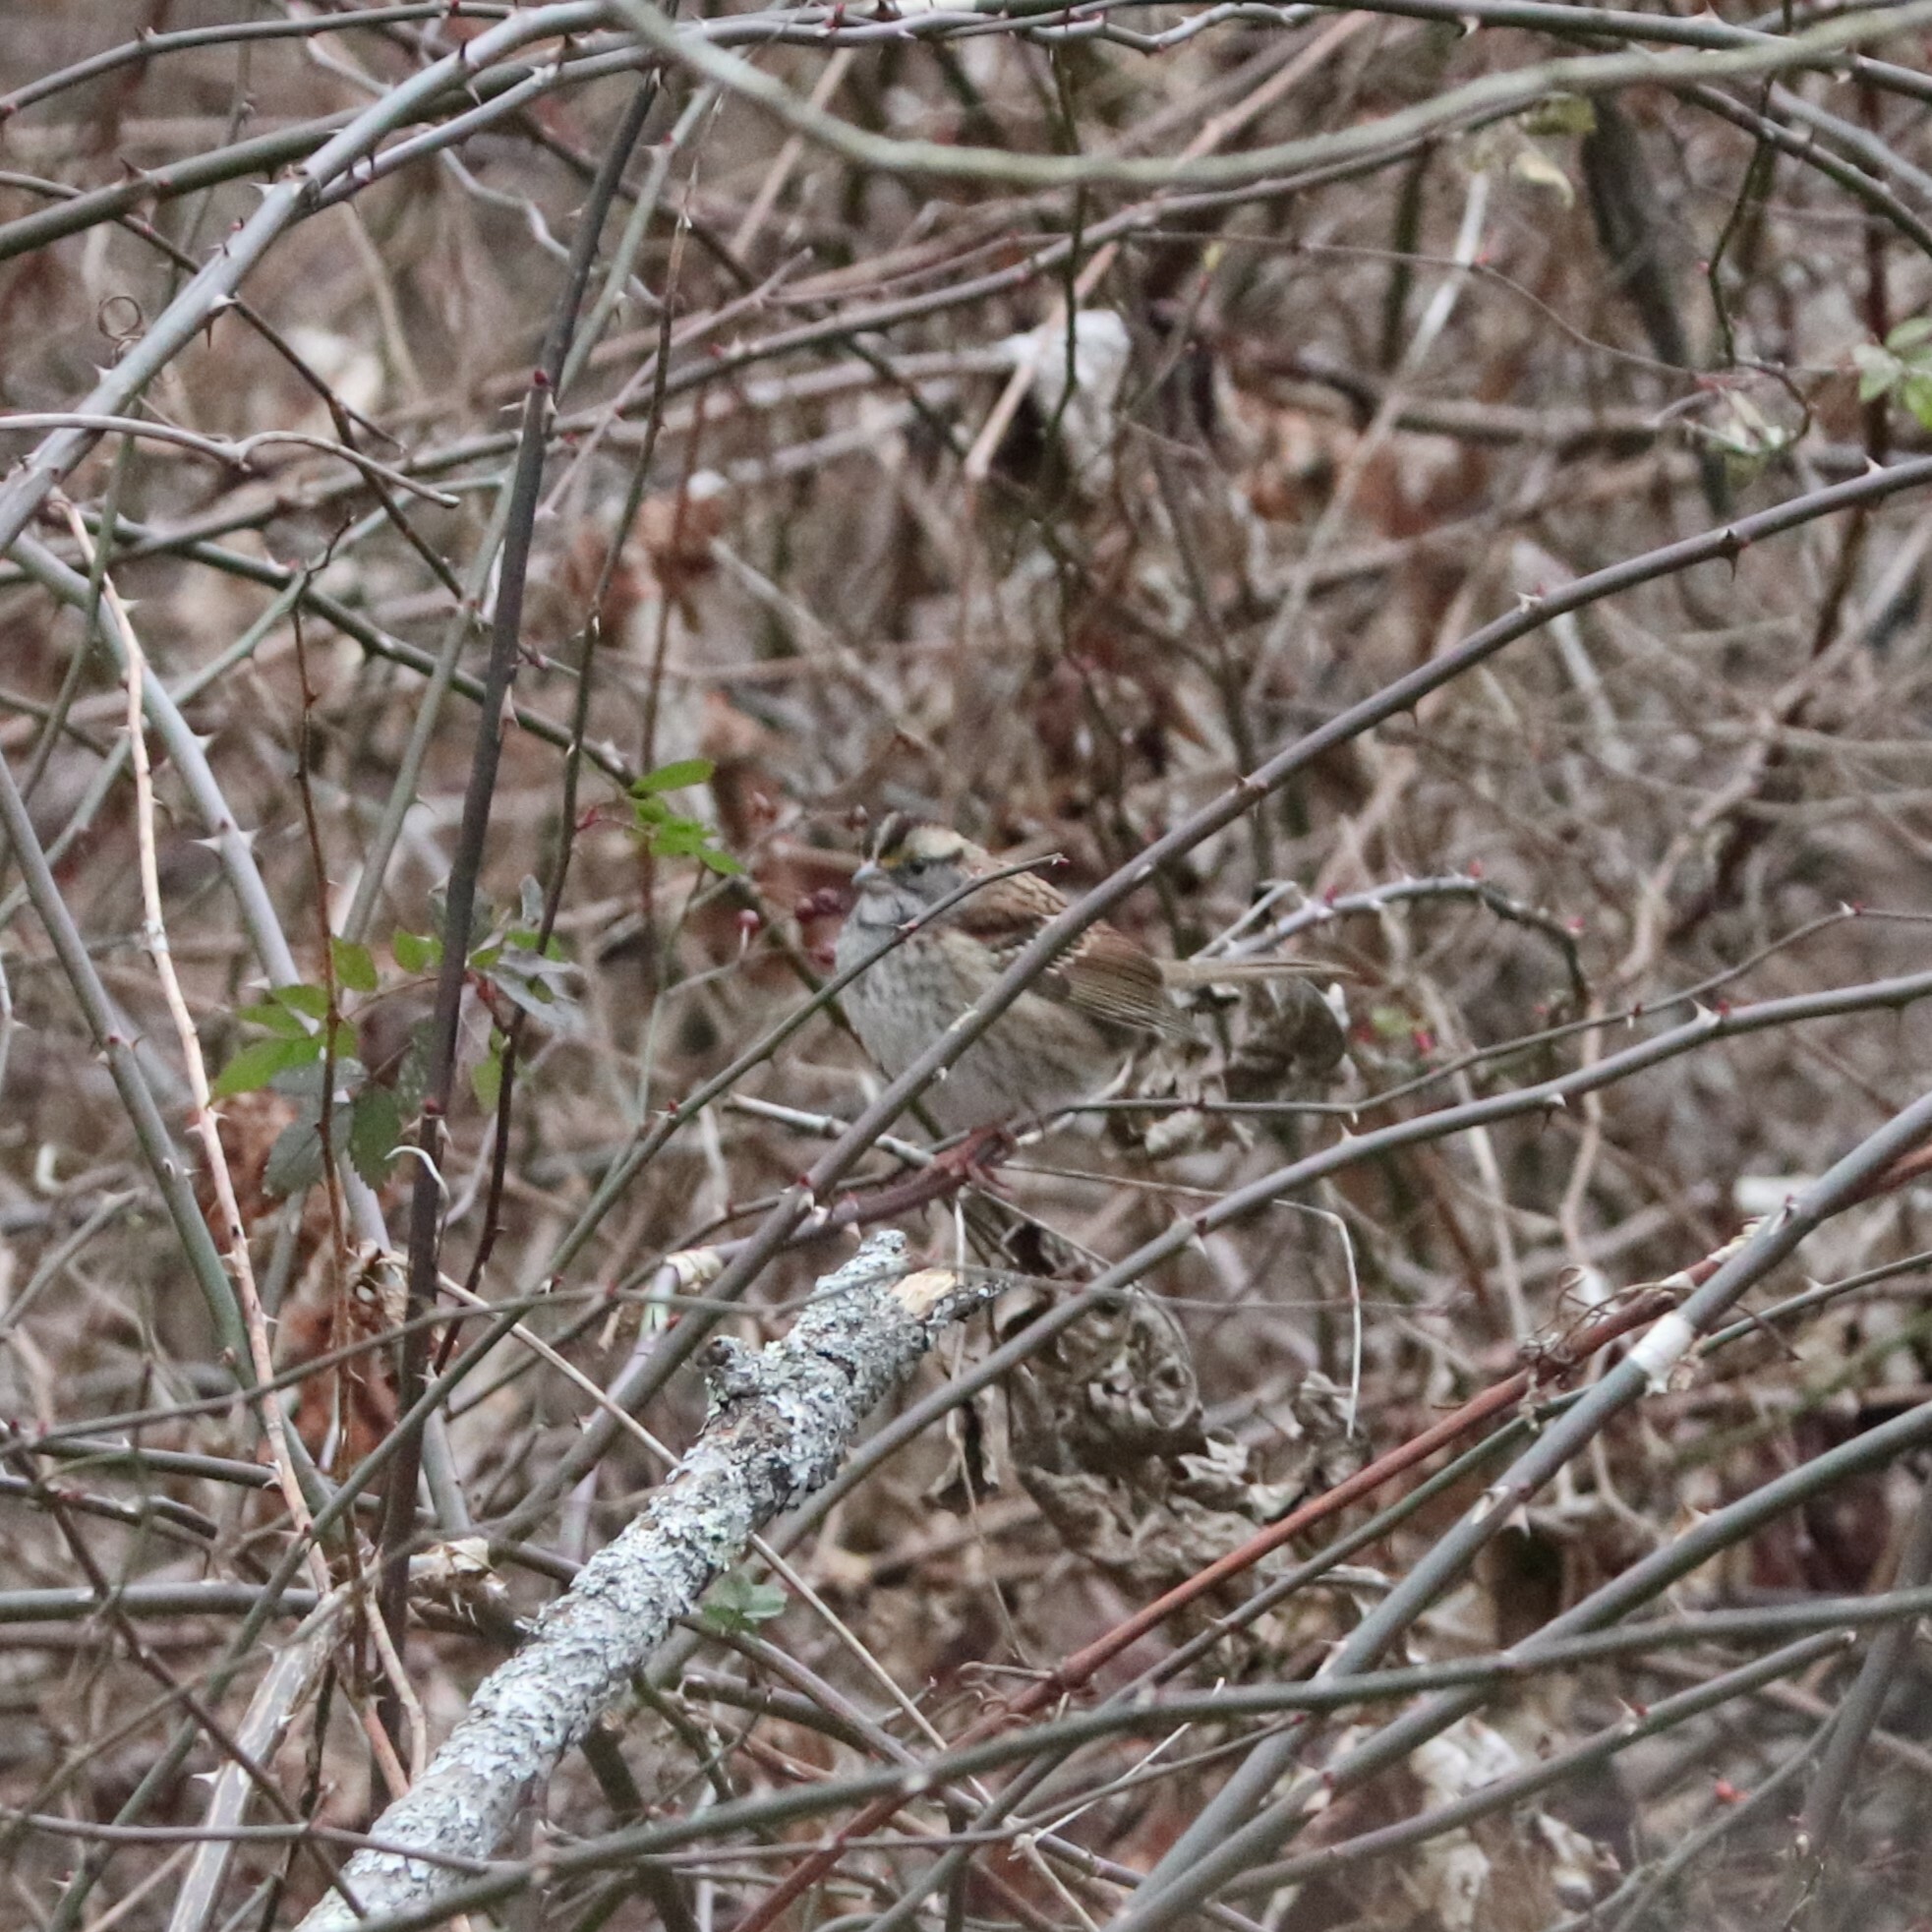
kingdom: Animalia
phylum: Chordata
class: Aves
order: Passeriformes
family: Passerellidae
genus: Zonotrichia
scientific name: Zonotrichia albicollis
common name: White-throated sparrow
